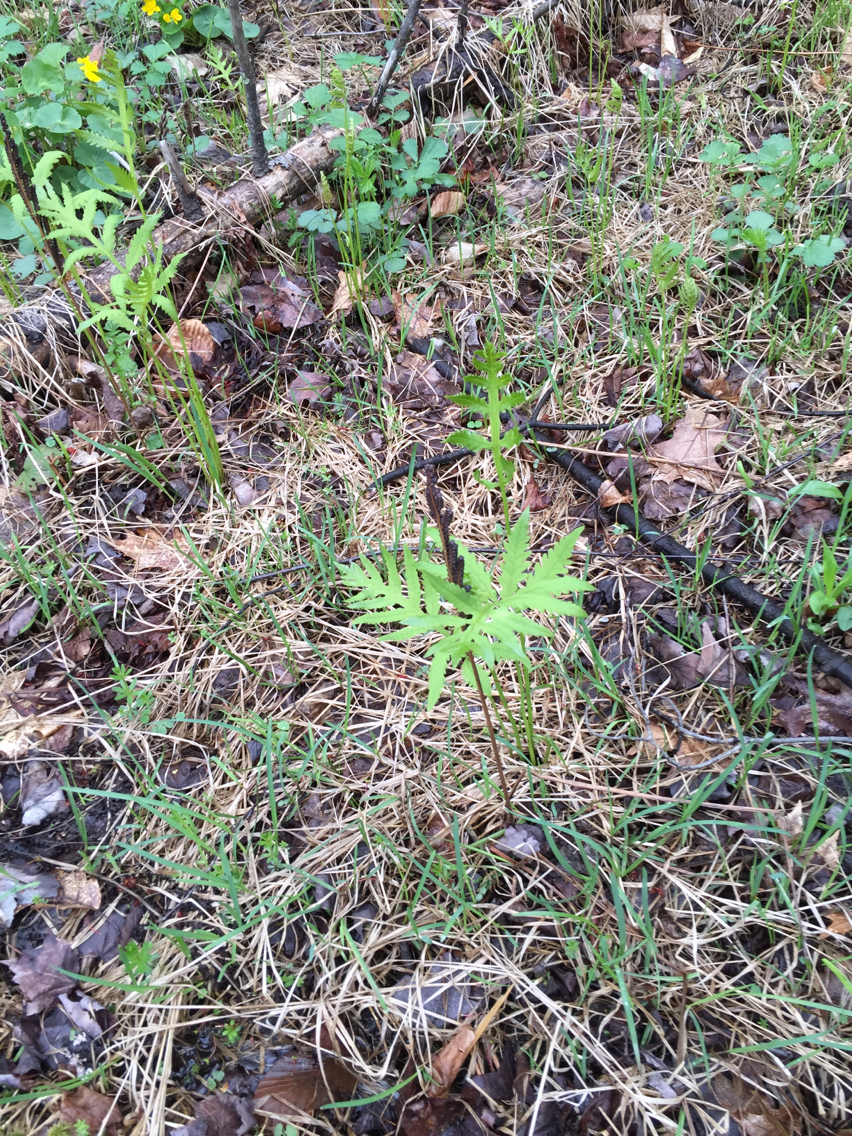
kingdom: Plantae
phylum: Tracheophyta
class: Polypodiopsida
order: Polypodiales
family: Onocleaceae
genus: Onoclea
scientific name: Onoclea sensibilis
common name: Sensitive fern
